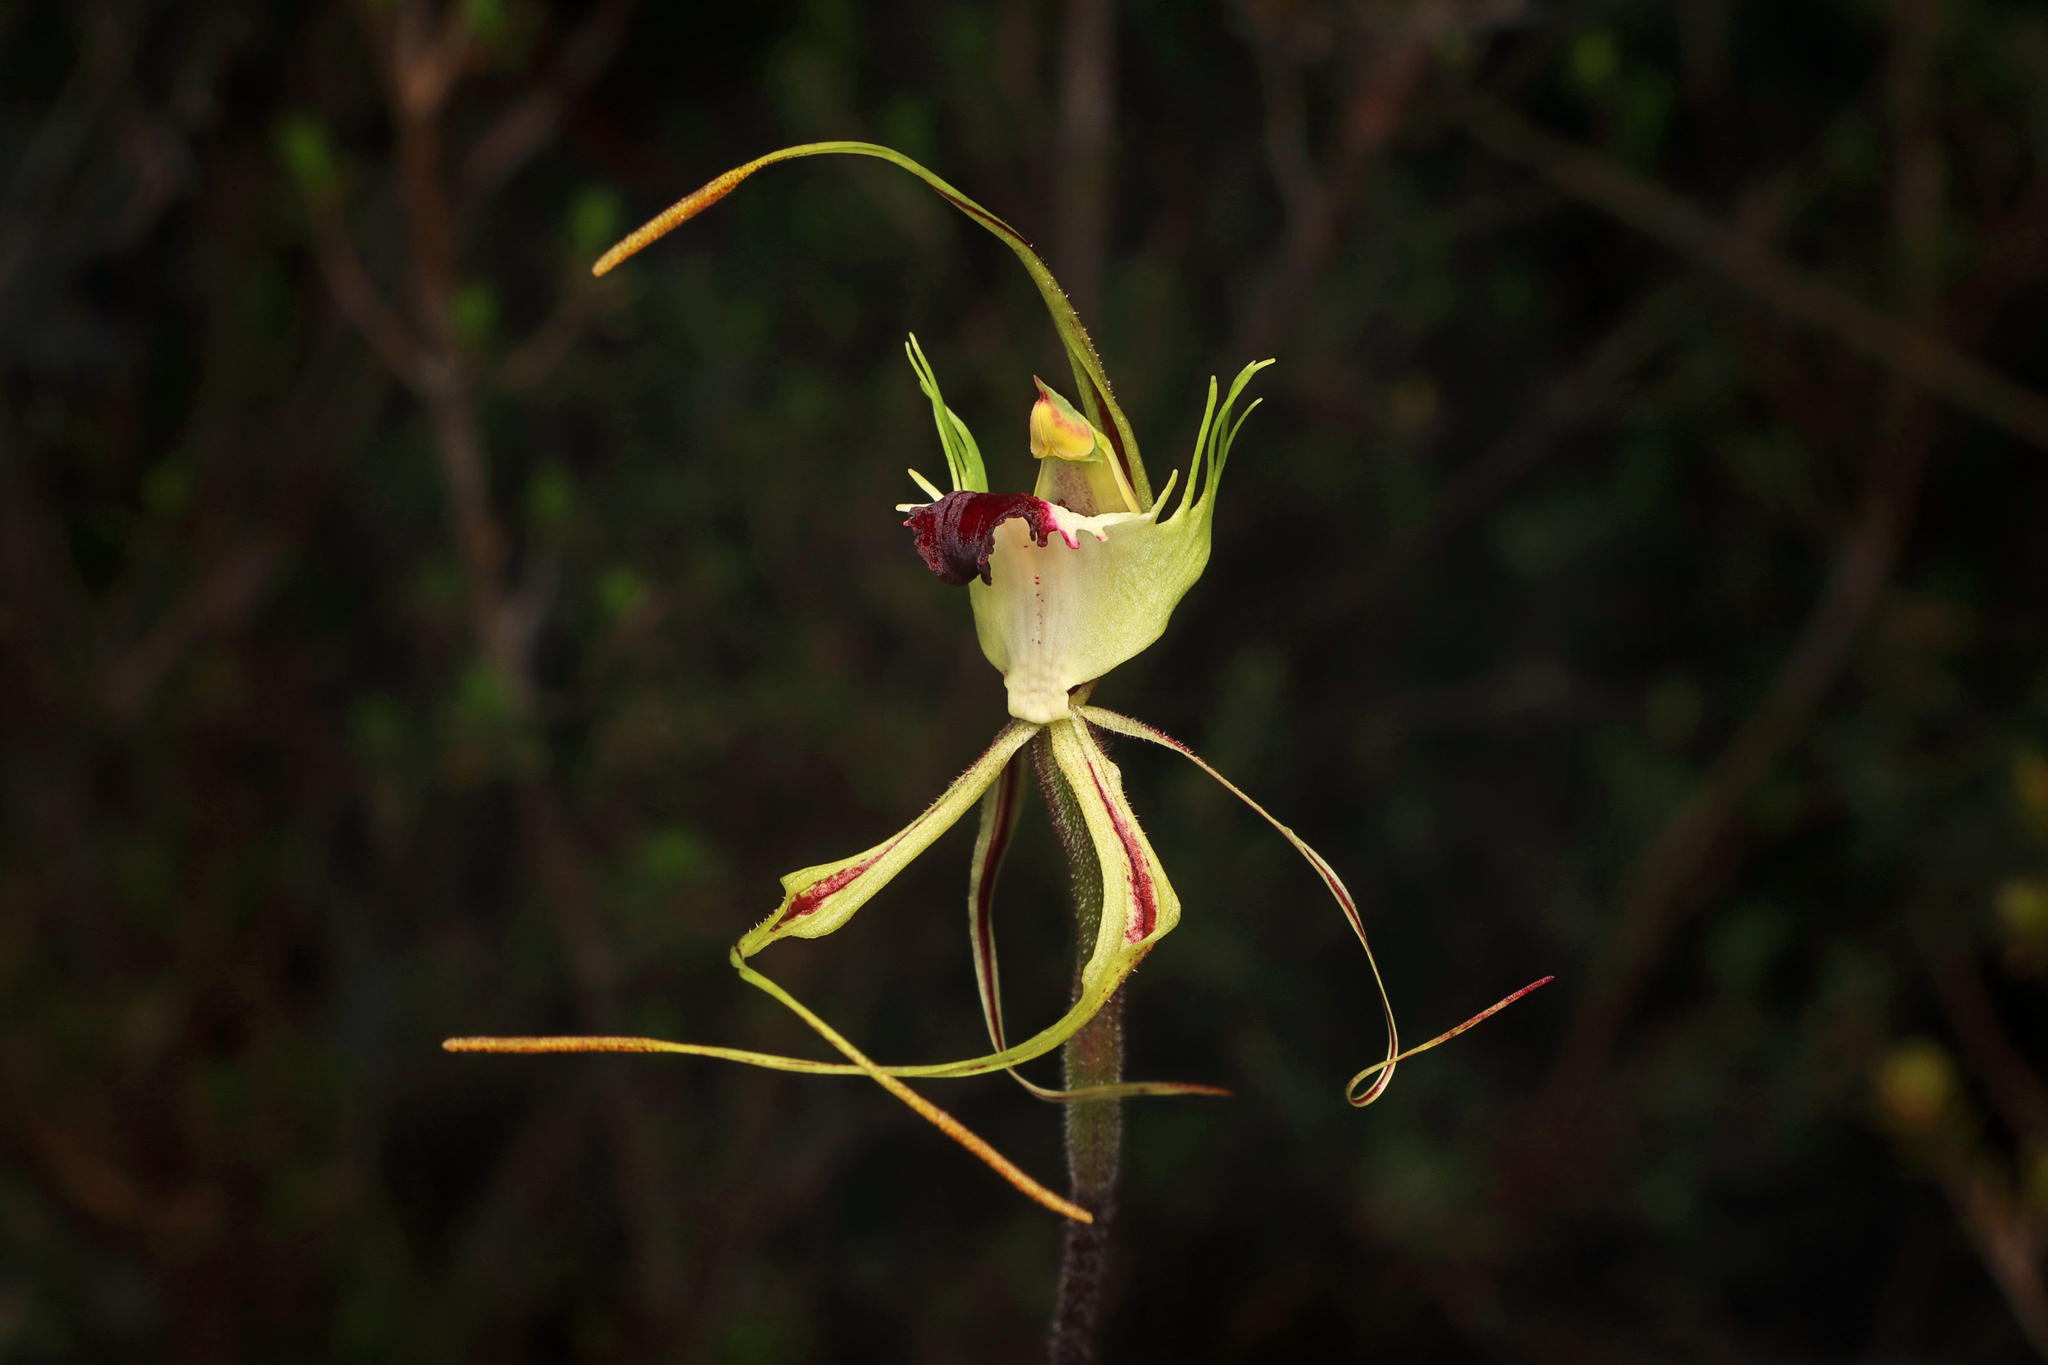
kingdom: Plantae
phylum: Tracheophyta
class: Liliopsida
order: Asparagales
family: Orchidaceae
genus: Caladenia
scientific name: Caladenia tentaculata
